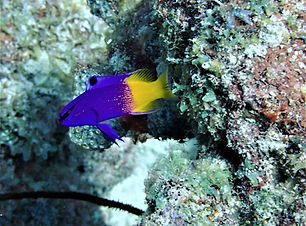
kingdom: Animalia
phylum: Chordata
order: Perciformes
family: Grammatidae
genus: Gramma
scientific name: Gramma loreto
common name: Fairy basslet
